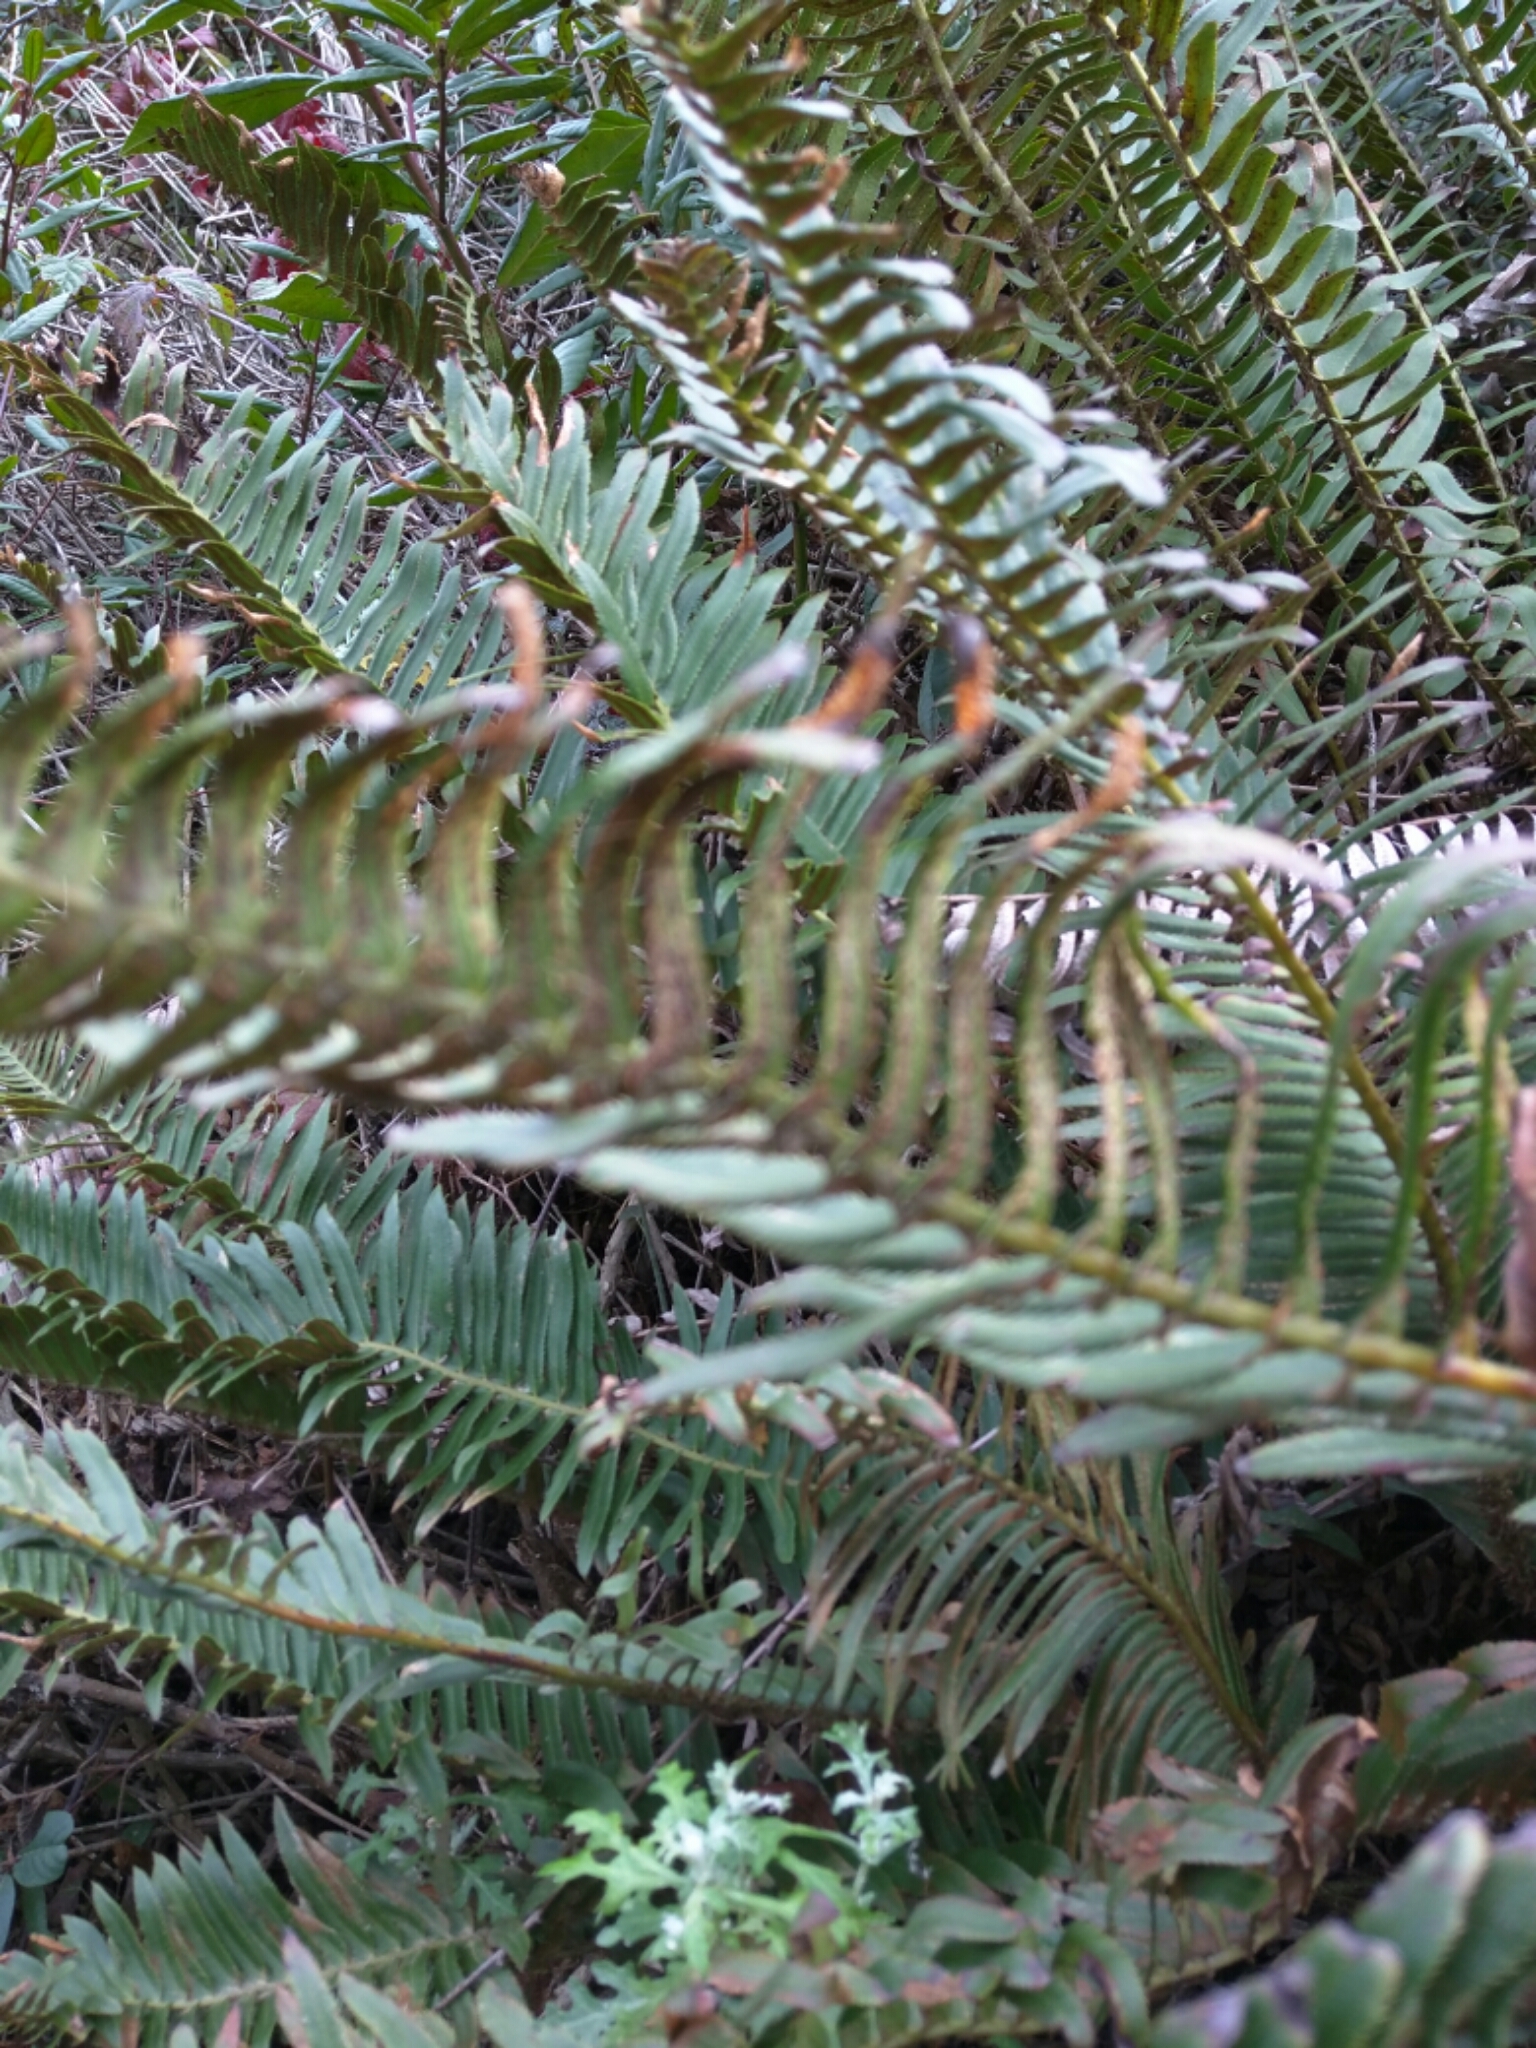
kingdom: Plantae
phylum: Tracheophyta
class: Polypodiopsida
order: Polypodiales
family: Dryopteridaceae
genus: Polystichum
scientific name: Polystichum munitum
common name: Western sword-fern
